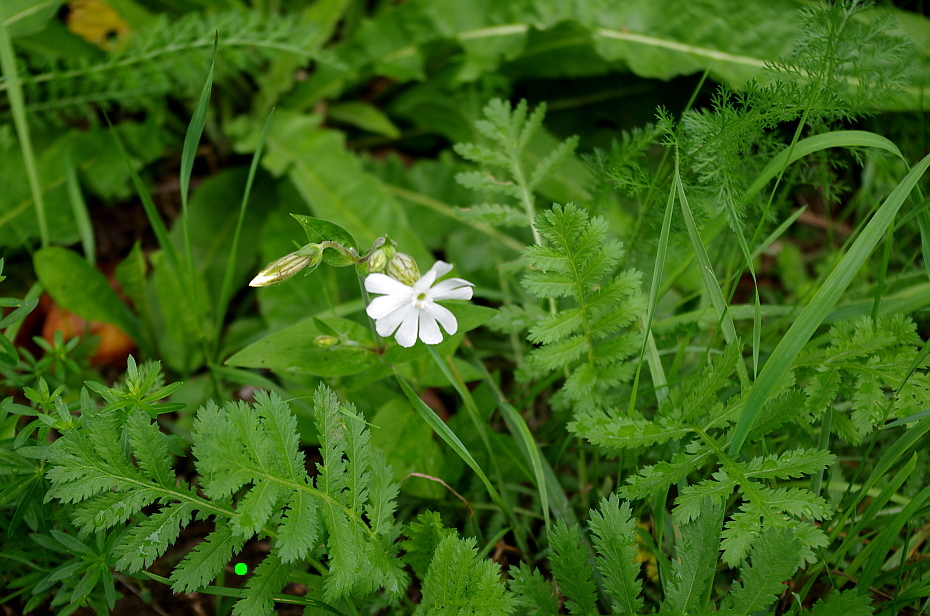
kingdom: Plantae
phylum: Tracheophyta
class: Magnoliopsida
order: Asterales
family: Asteraceae
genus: Tanacetum
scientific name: Tanacetum vulgare
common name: Common tansy
